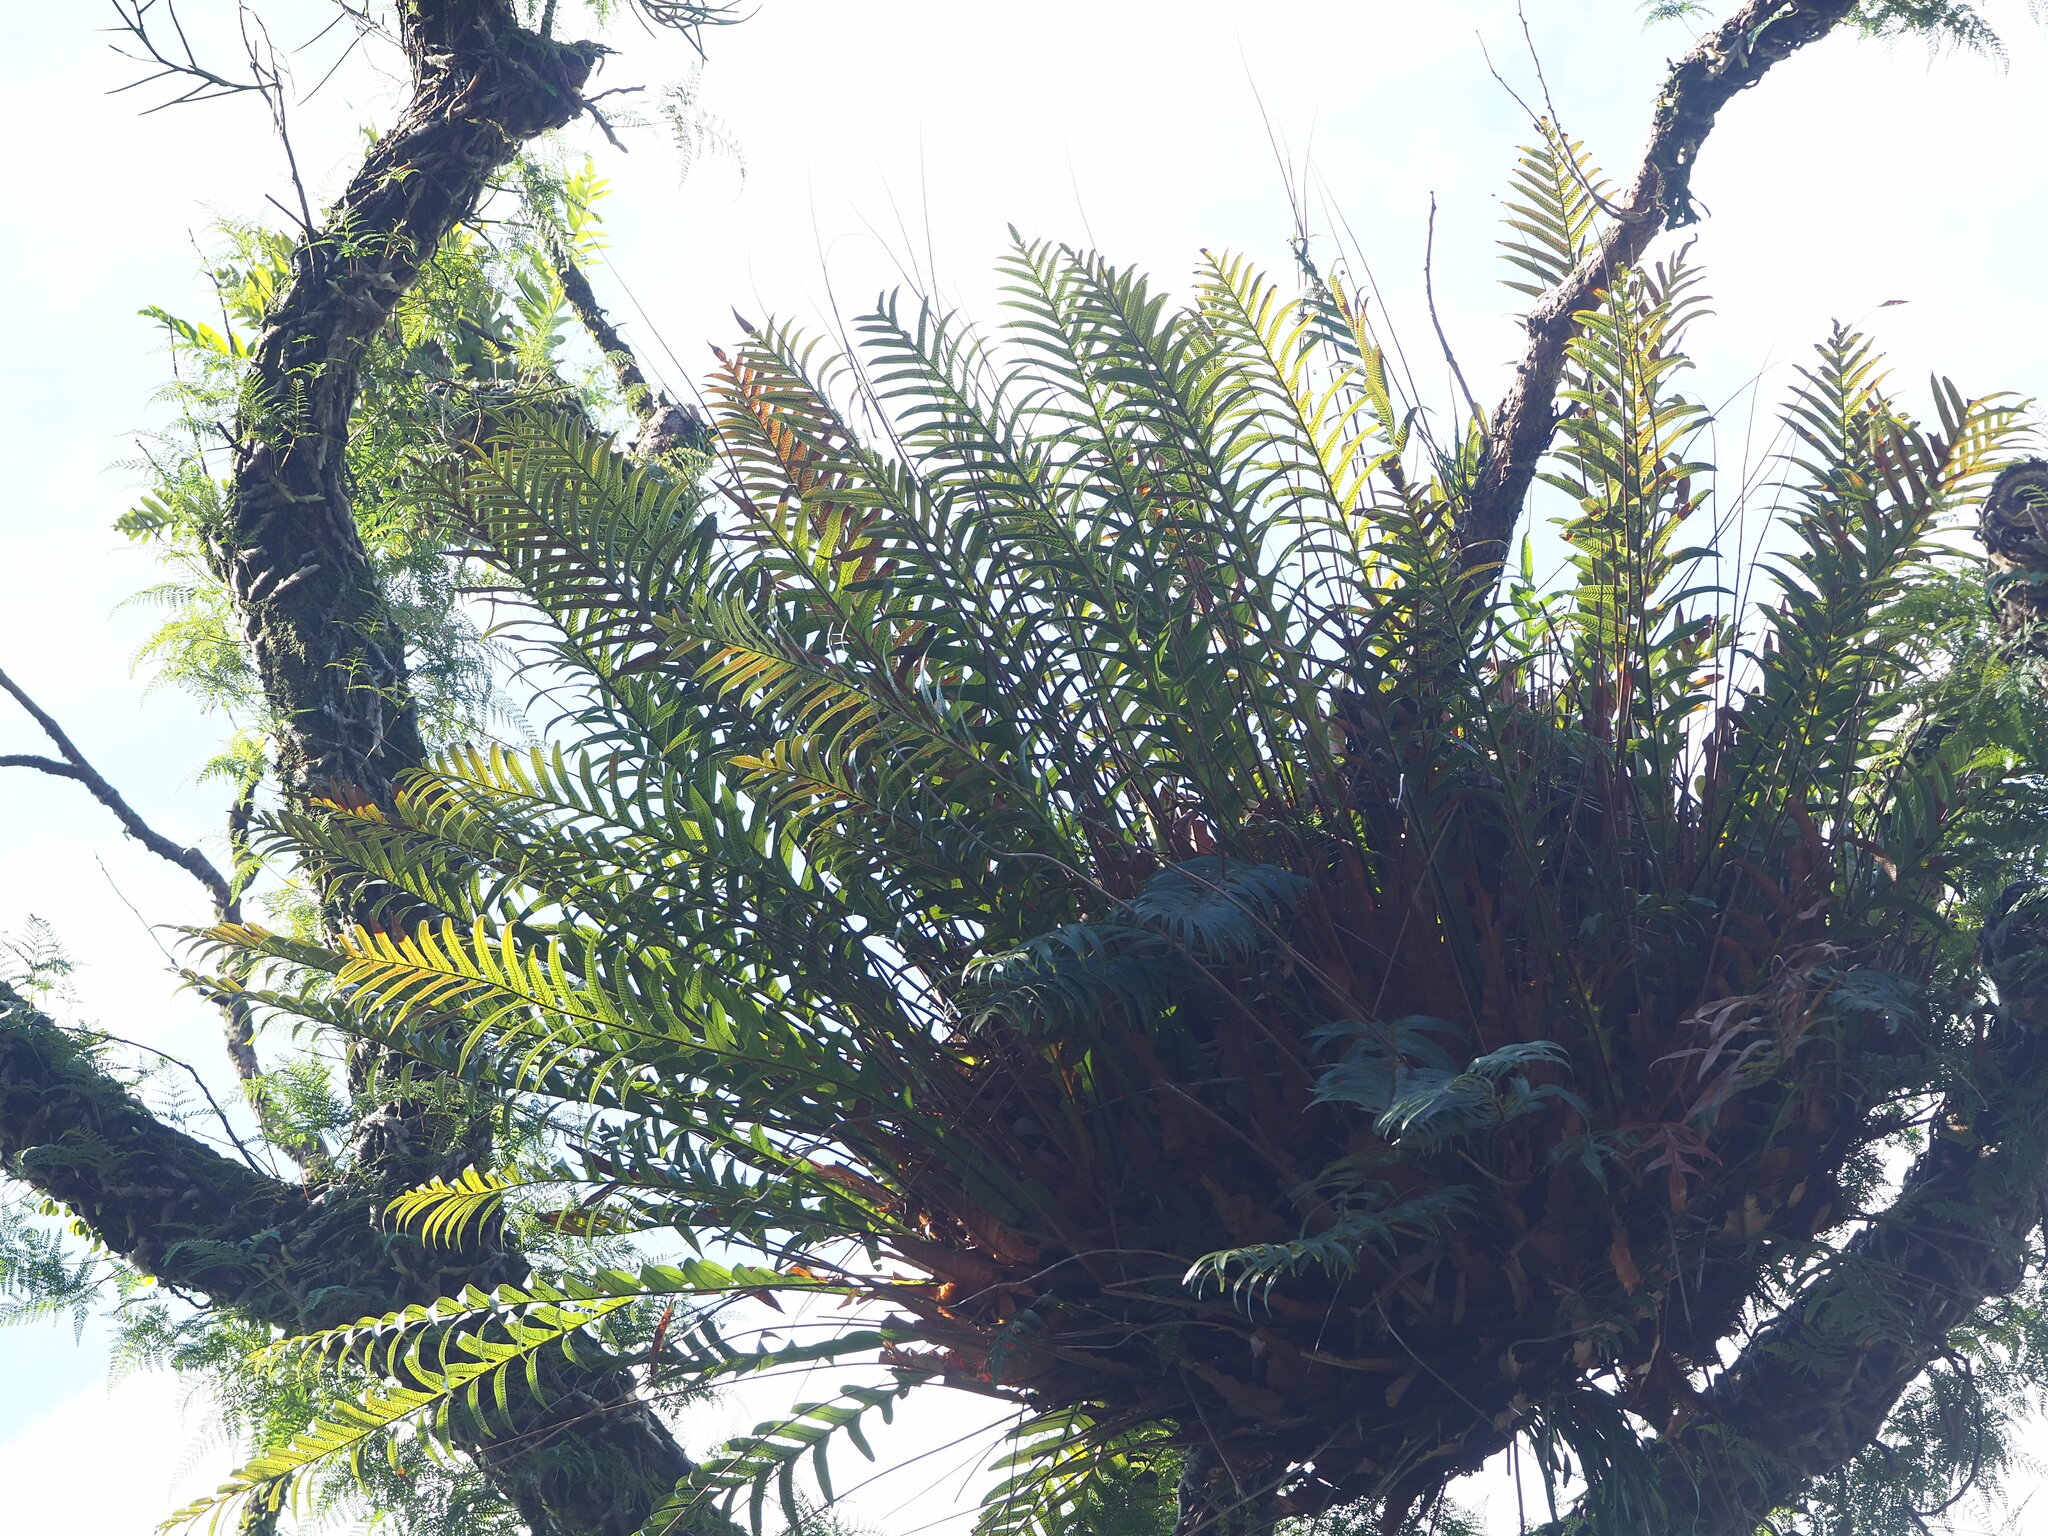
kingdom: Plantae
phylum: Tracheophyta
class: Polypodiopsida
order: Polypodiales
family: Polypodiaceae
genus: Drynaria
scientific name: Drynaria coronans
